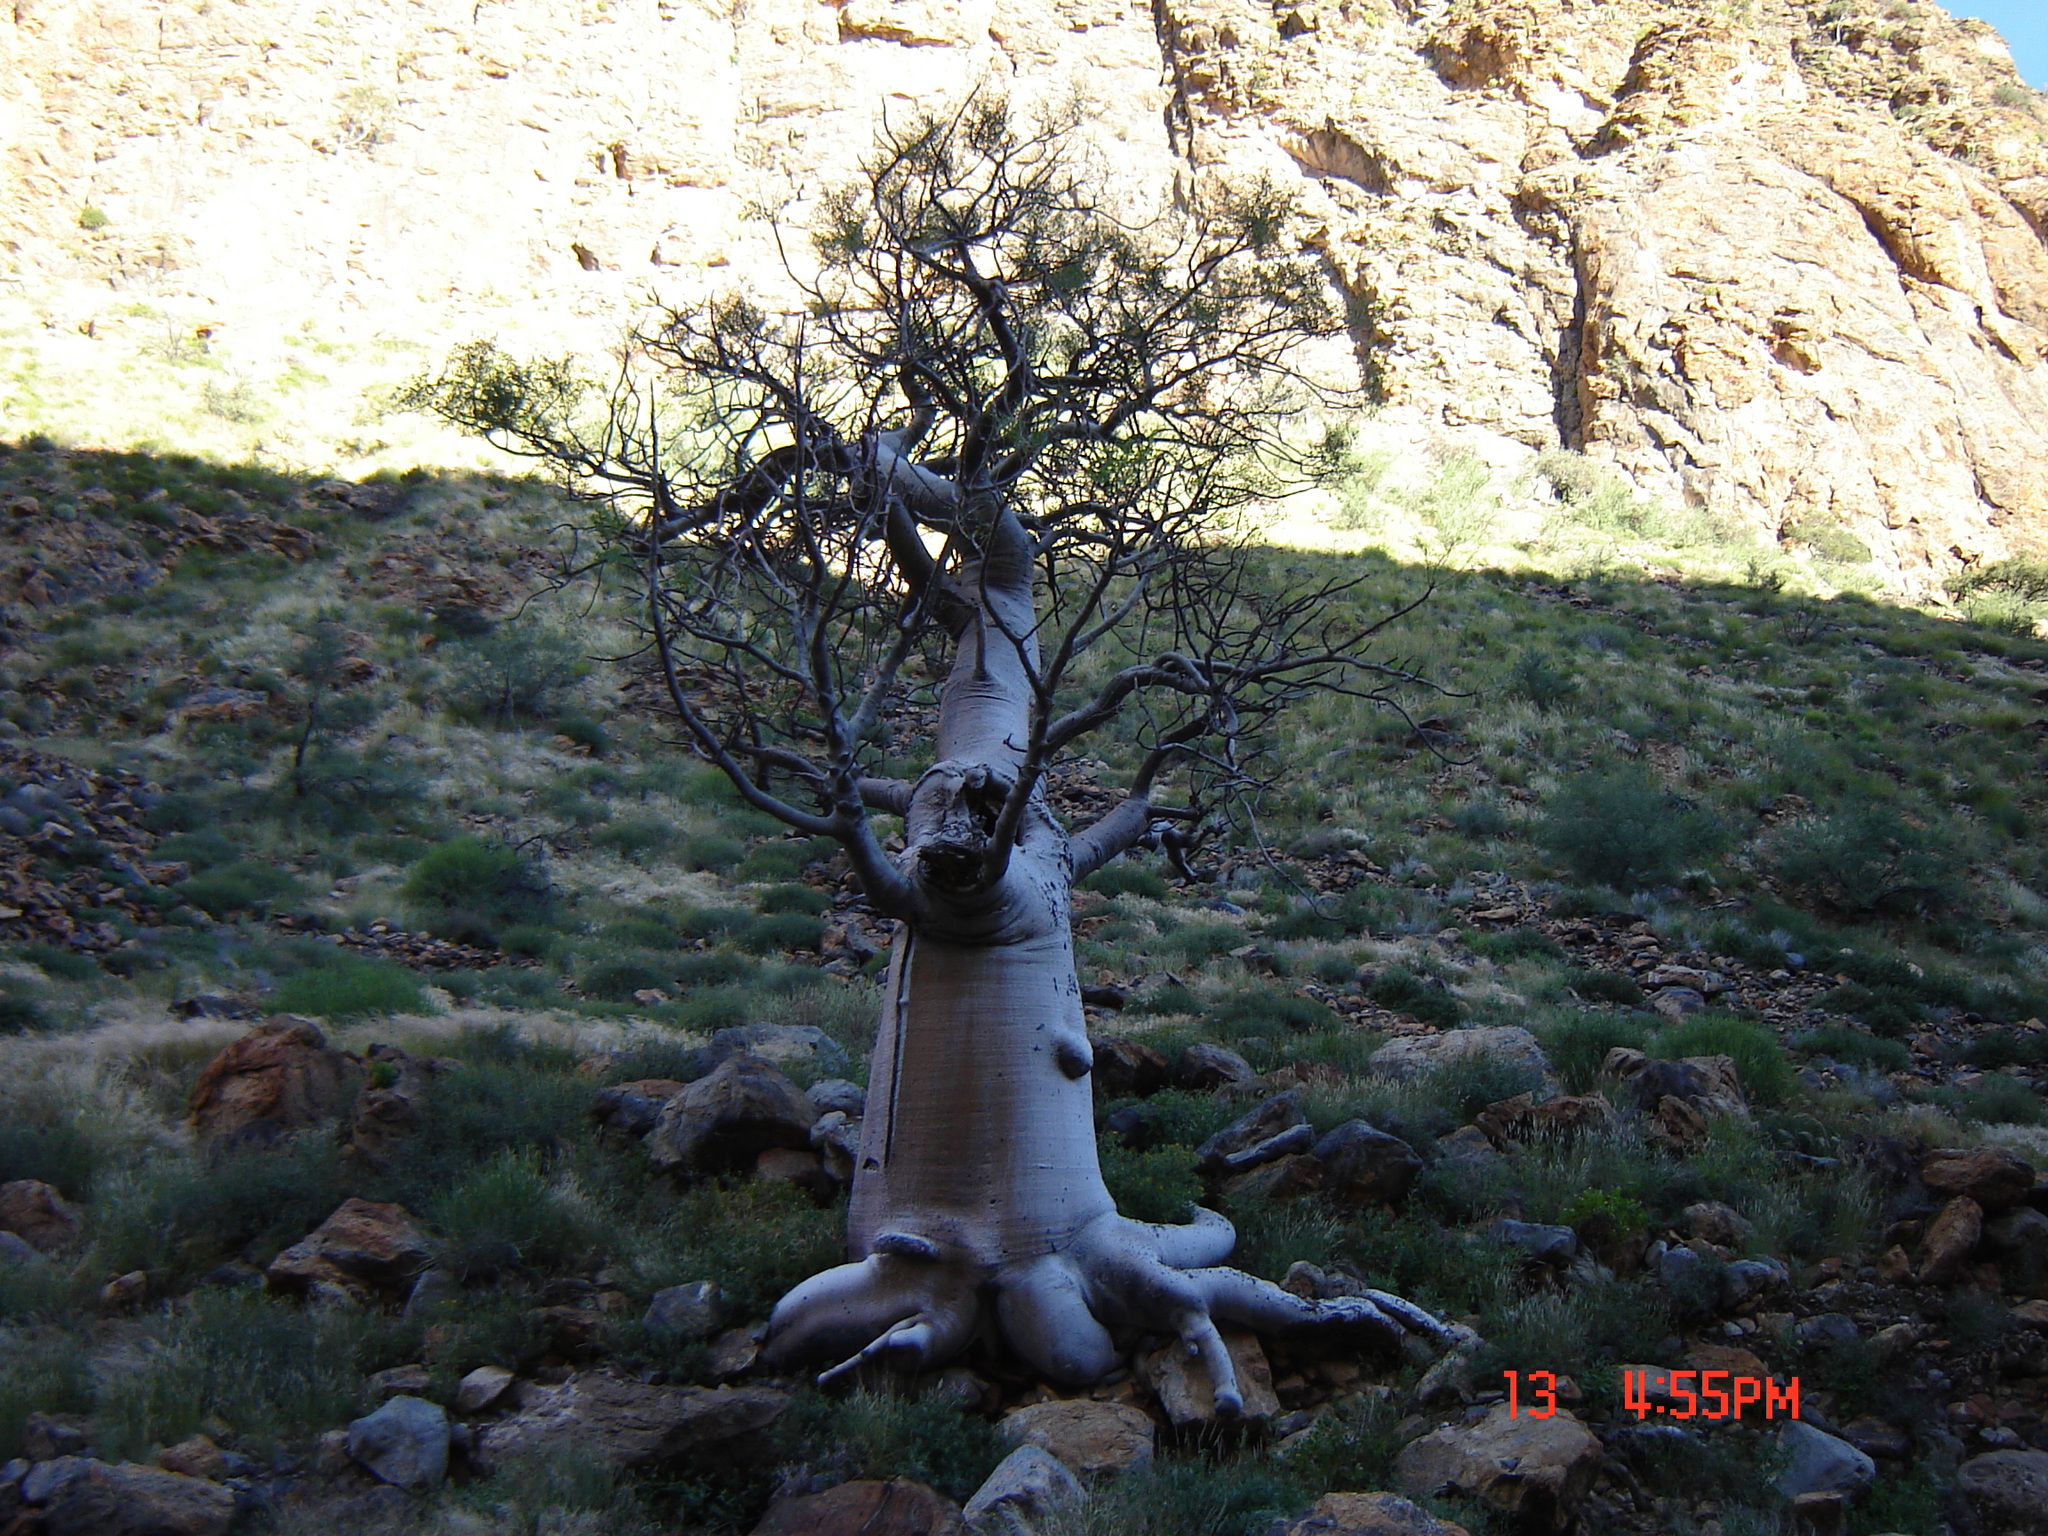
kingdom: Plantae
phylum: Tracheophyta
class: Magnoliopsida
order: Brassicales
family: Moringaceae
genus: Moringa
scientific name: Moringa ovalifolia
